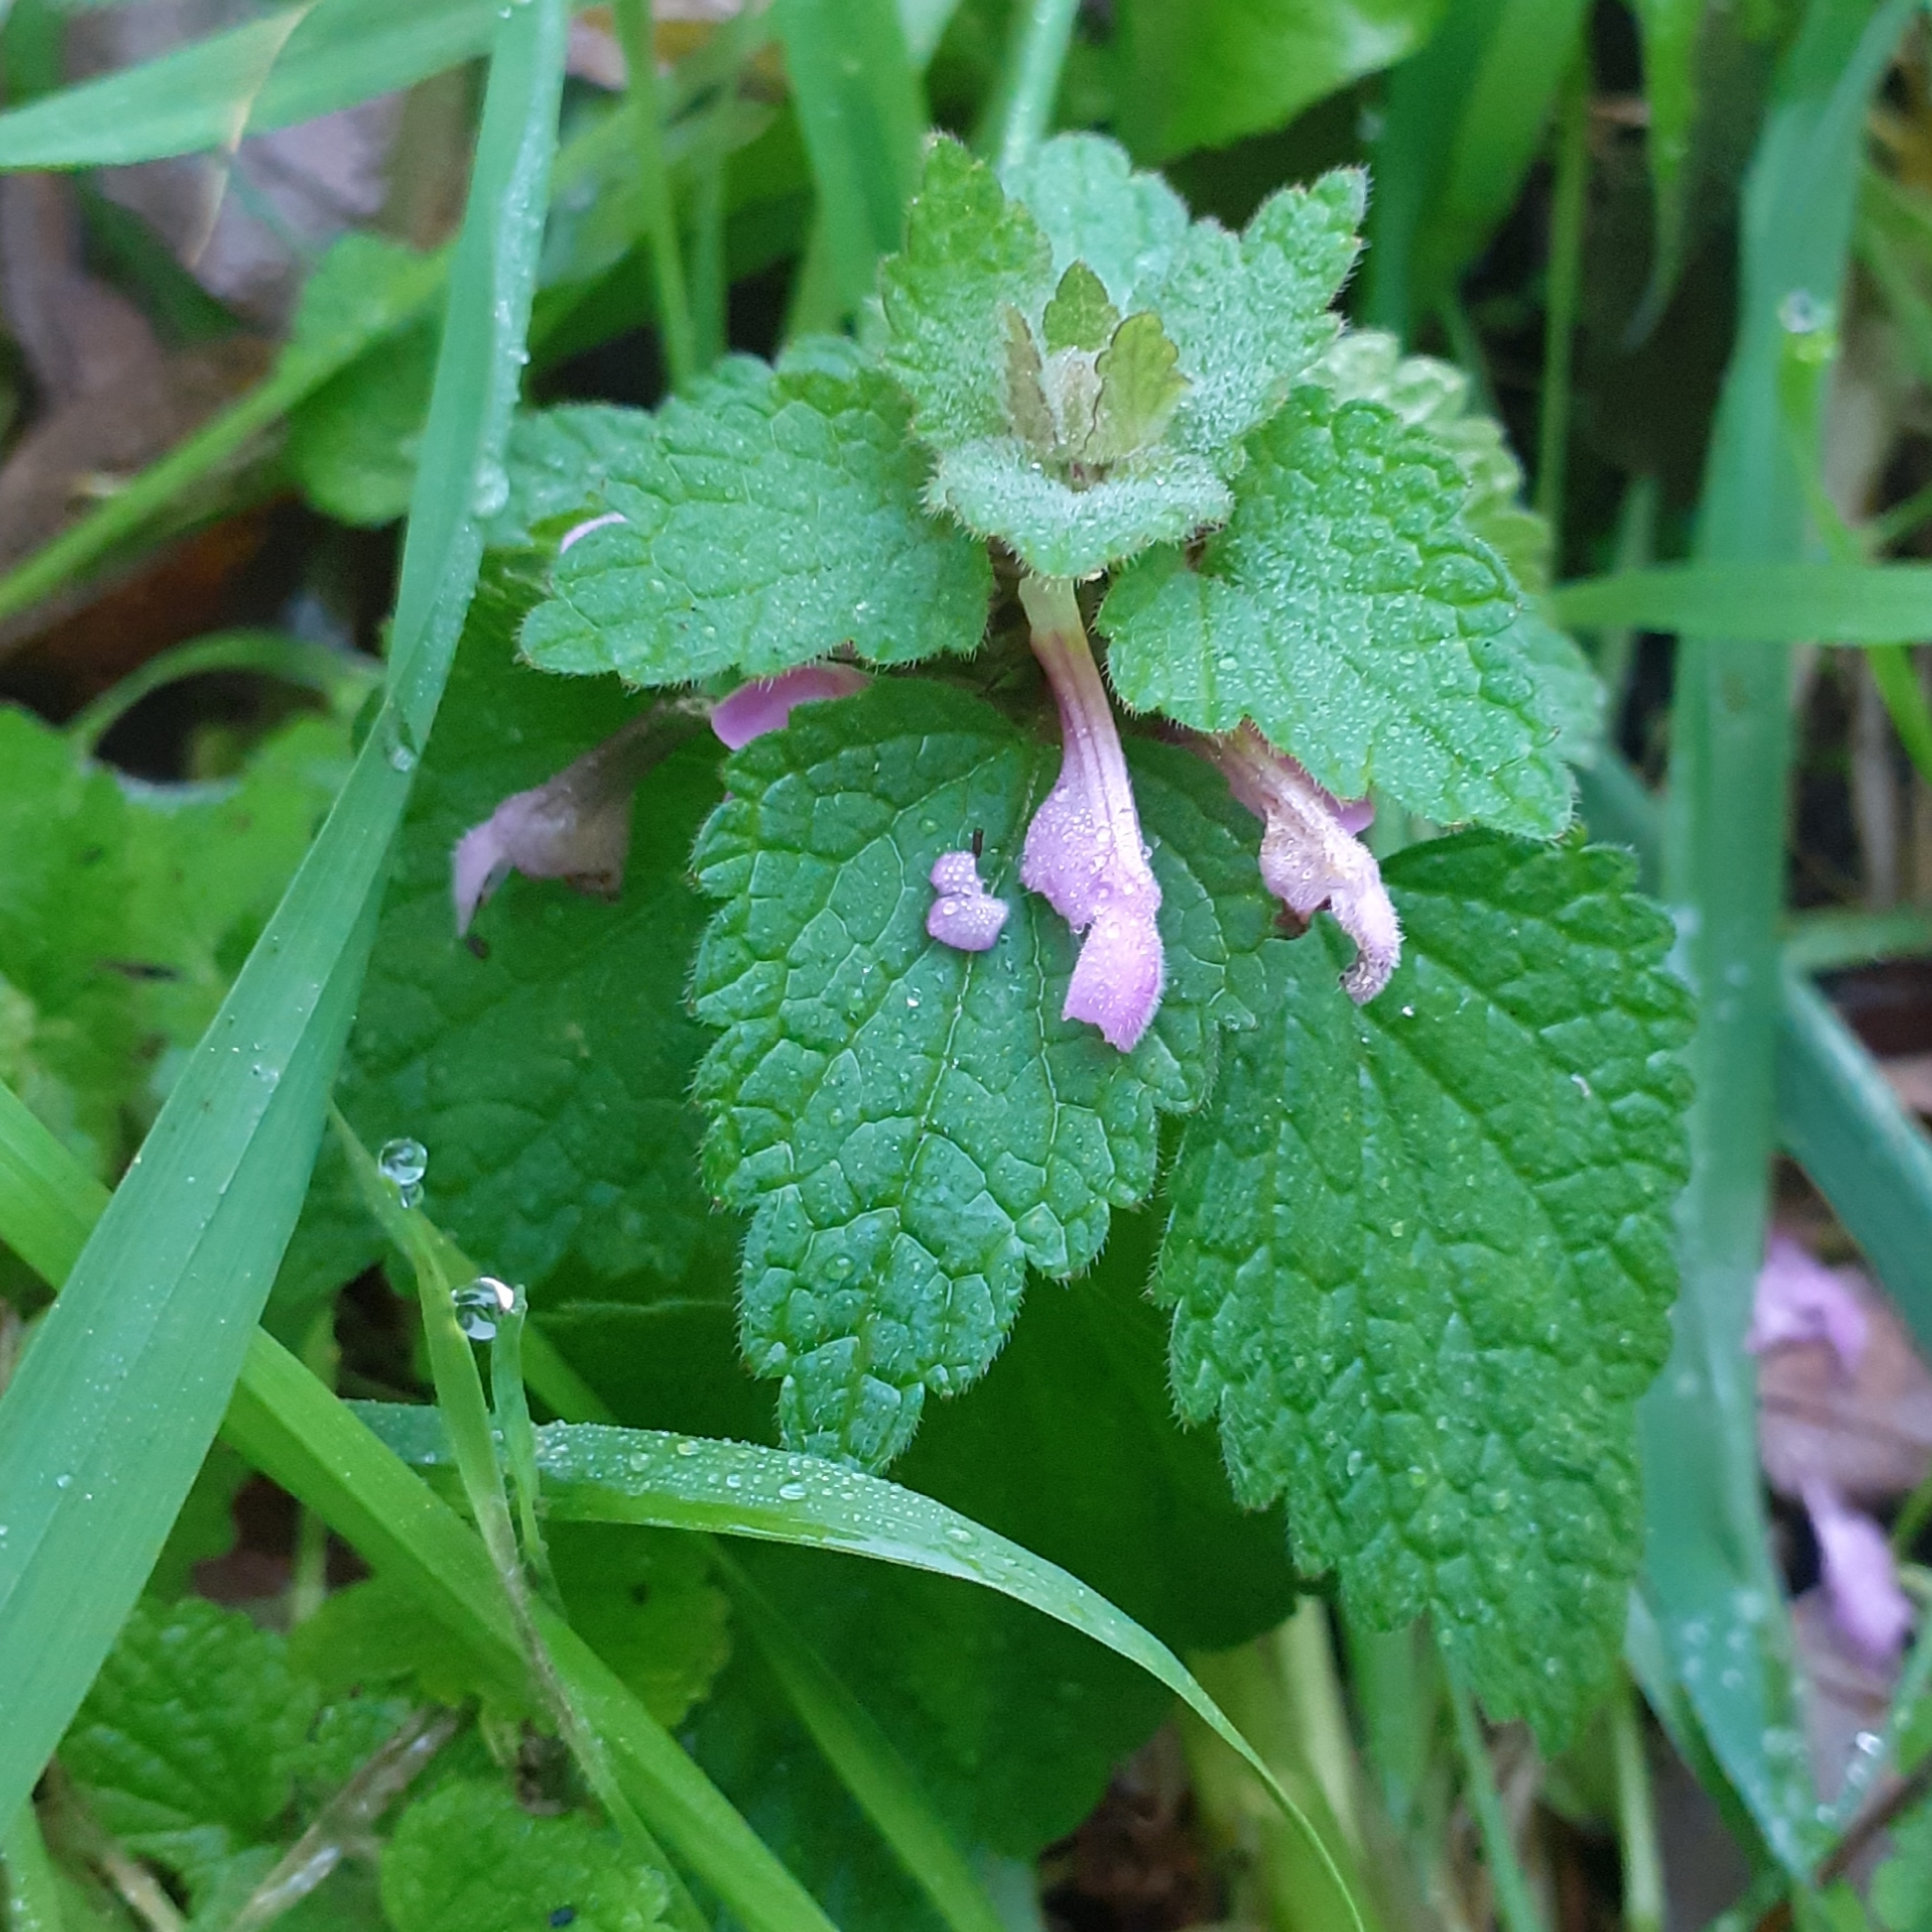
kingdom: Plantae
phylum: Tracheophyta
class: Magnoliopsida
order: Lamiales
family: Lamiaceae
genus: Lamium
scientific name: Lamium purpureum
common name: Red dead-nettle
